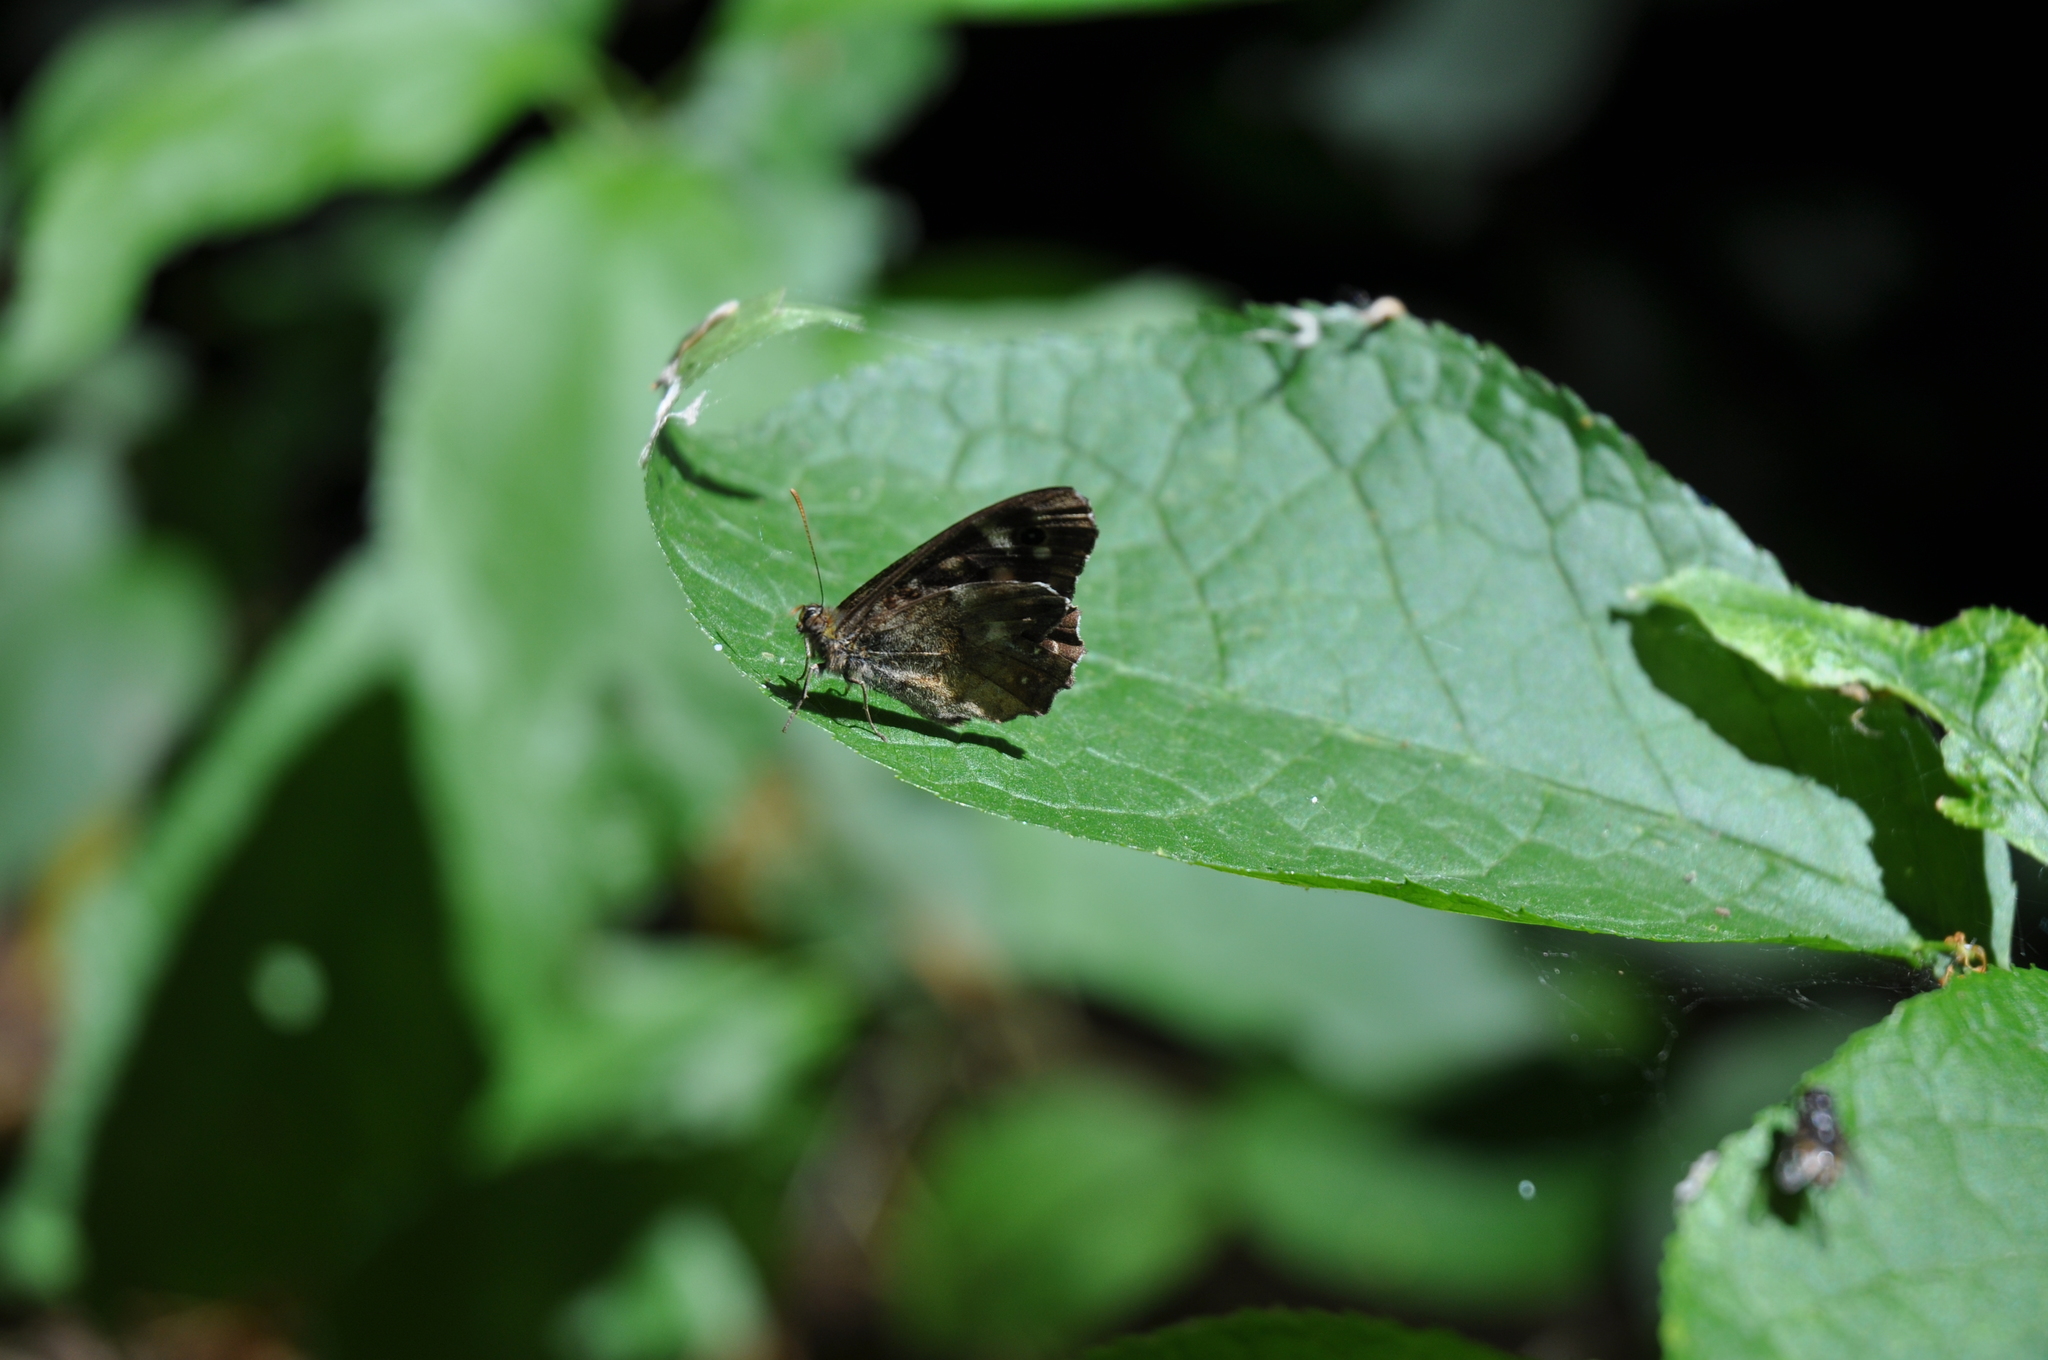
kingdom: Animalia
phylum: Arthropoda
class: Insecta
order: Lepidoptera
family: Nymphalidae
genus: Pararge
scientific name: Pararge aegeria
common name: Speckled wood
